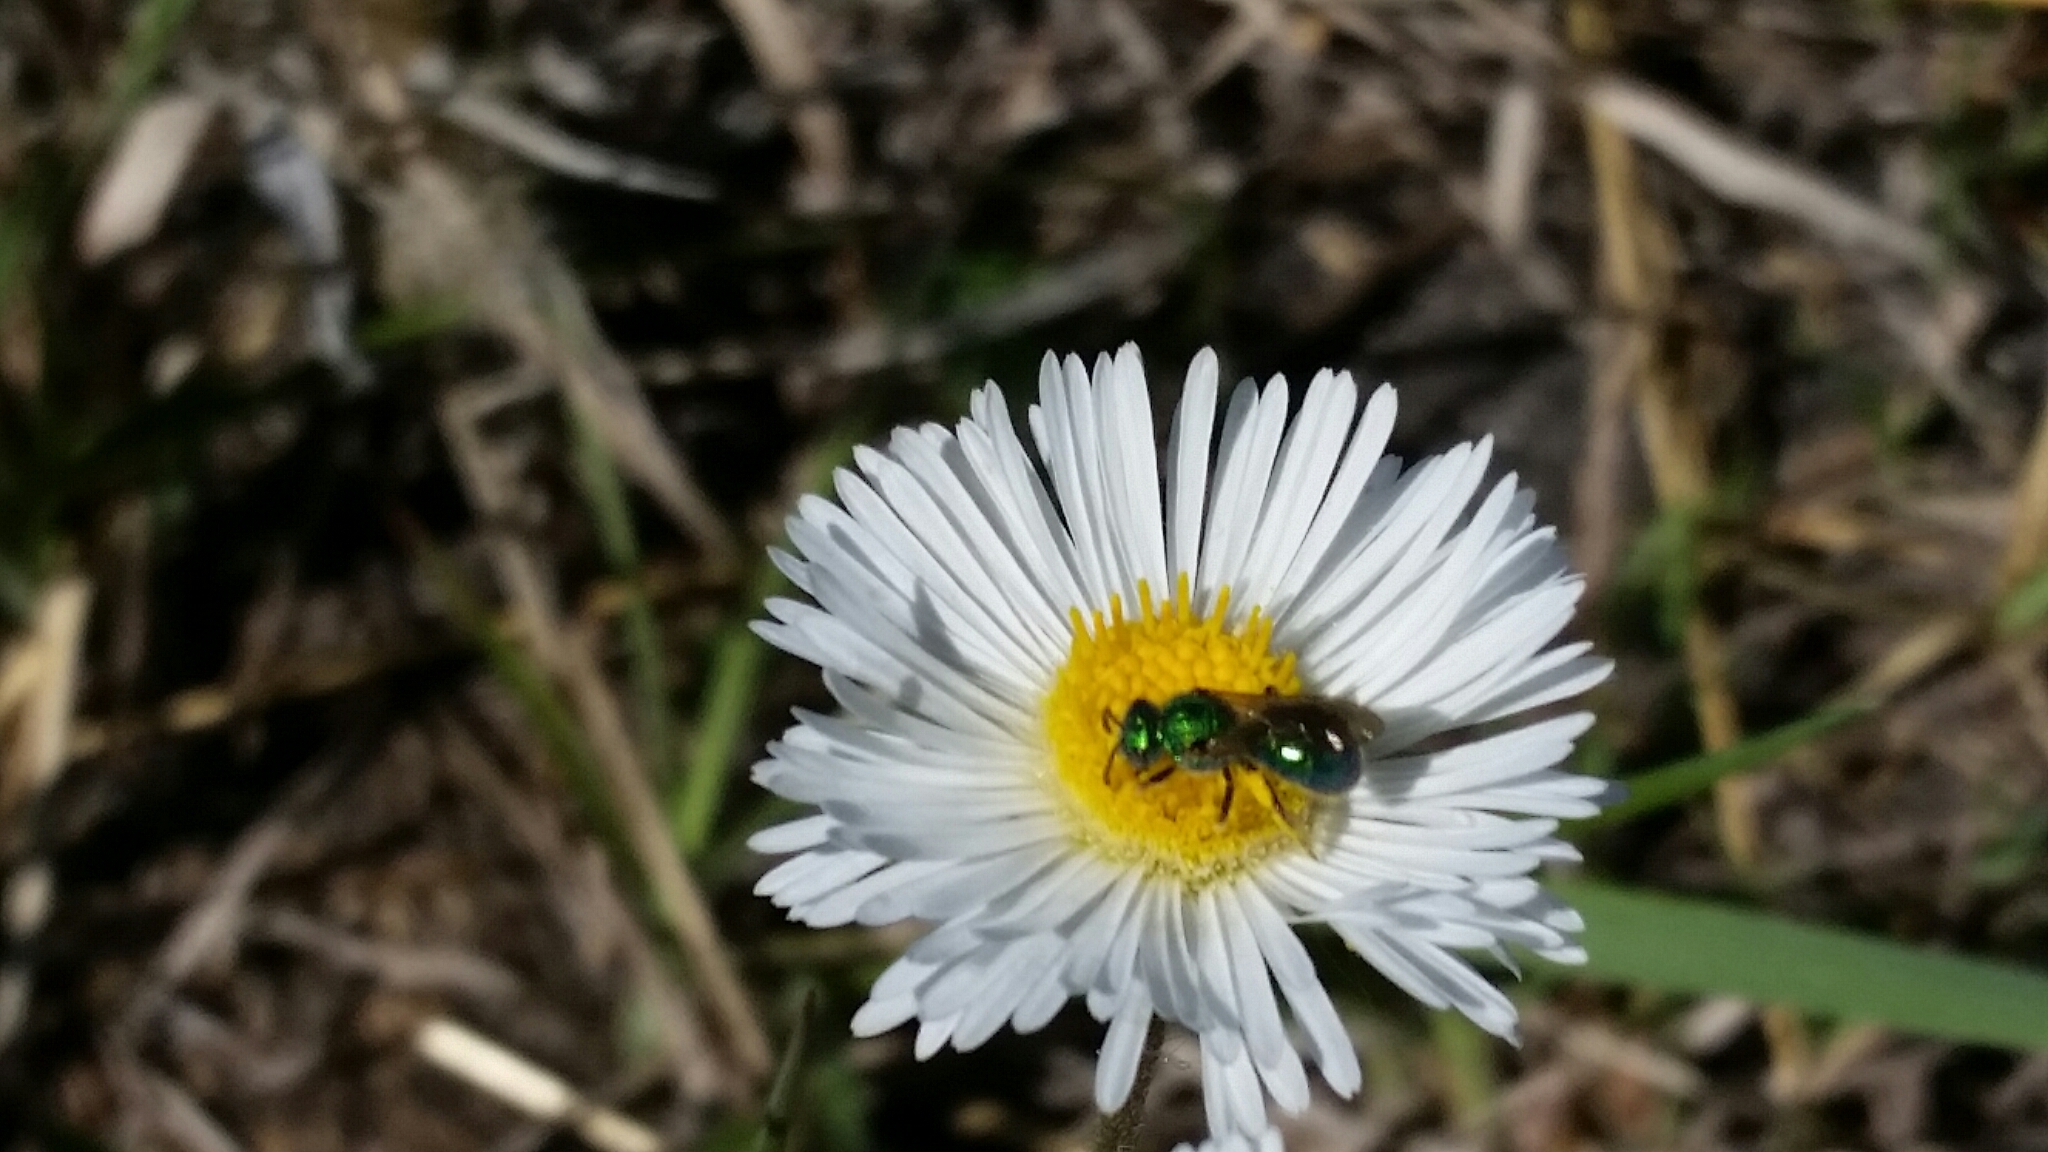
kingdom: Animalia
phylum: Arthropoda
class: Insecta
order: Hymenoptera
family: Halictidae
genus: Augochlorella
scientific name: Augochlorella aurata
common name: Golden sweat bee
